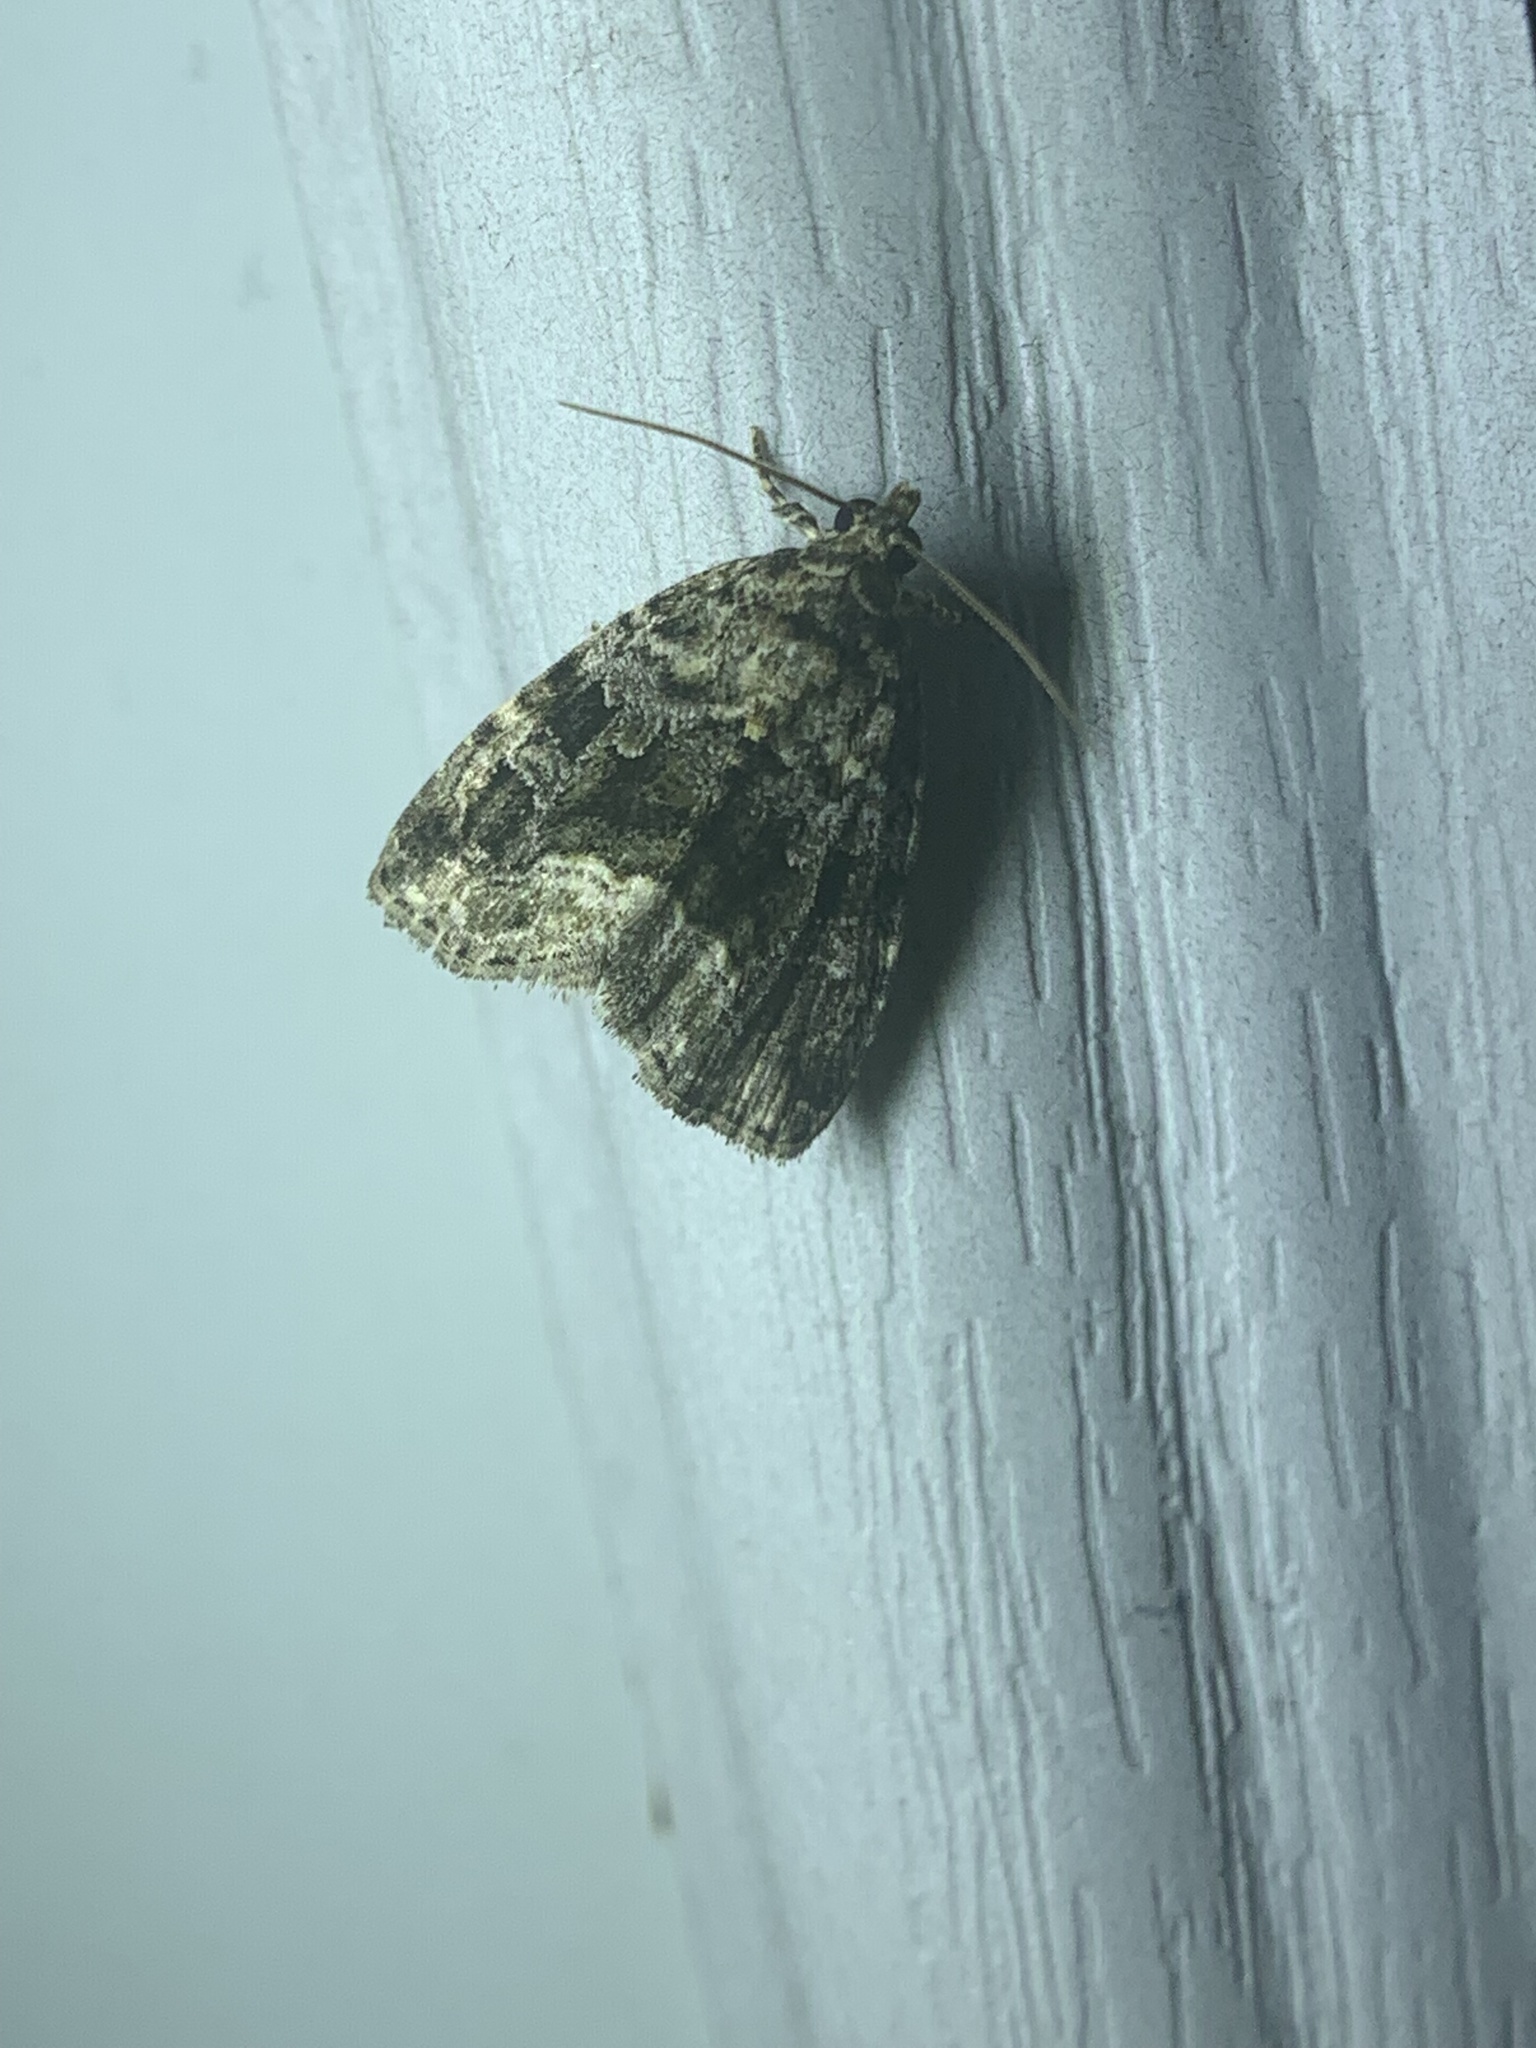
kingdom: Animalia
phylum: Arthropoda
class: Insecta
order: Lepidoptera
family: Noctuidae
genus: Protodeltote
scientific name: Protodeltote muscosula
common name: Large mossy glyph
